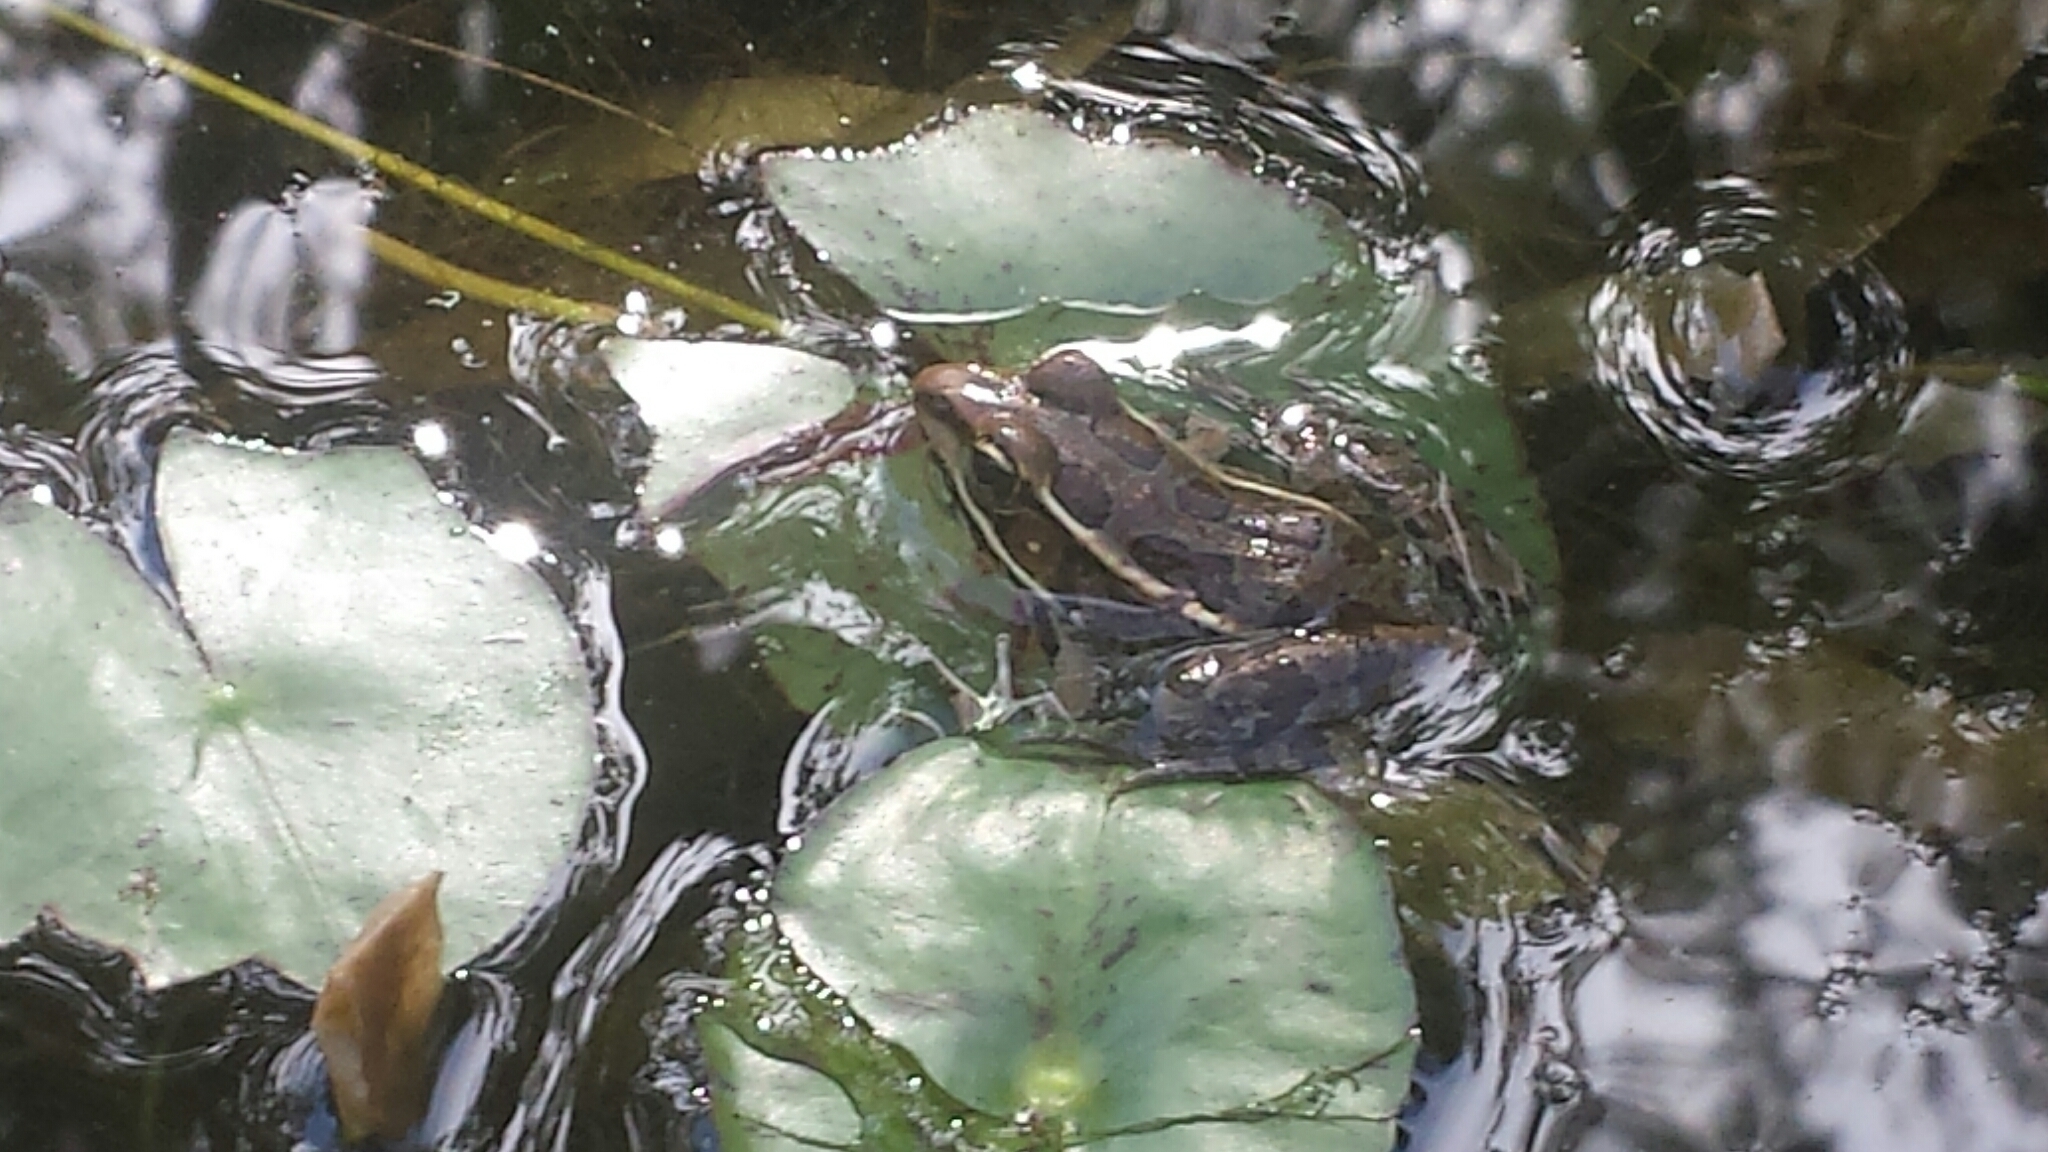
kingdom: Animalia
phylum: Chordata
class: Amphibia
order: Anura
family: Ranidae
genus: Lithobates
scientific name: Lithobates
